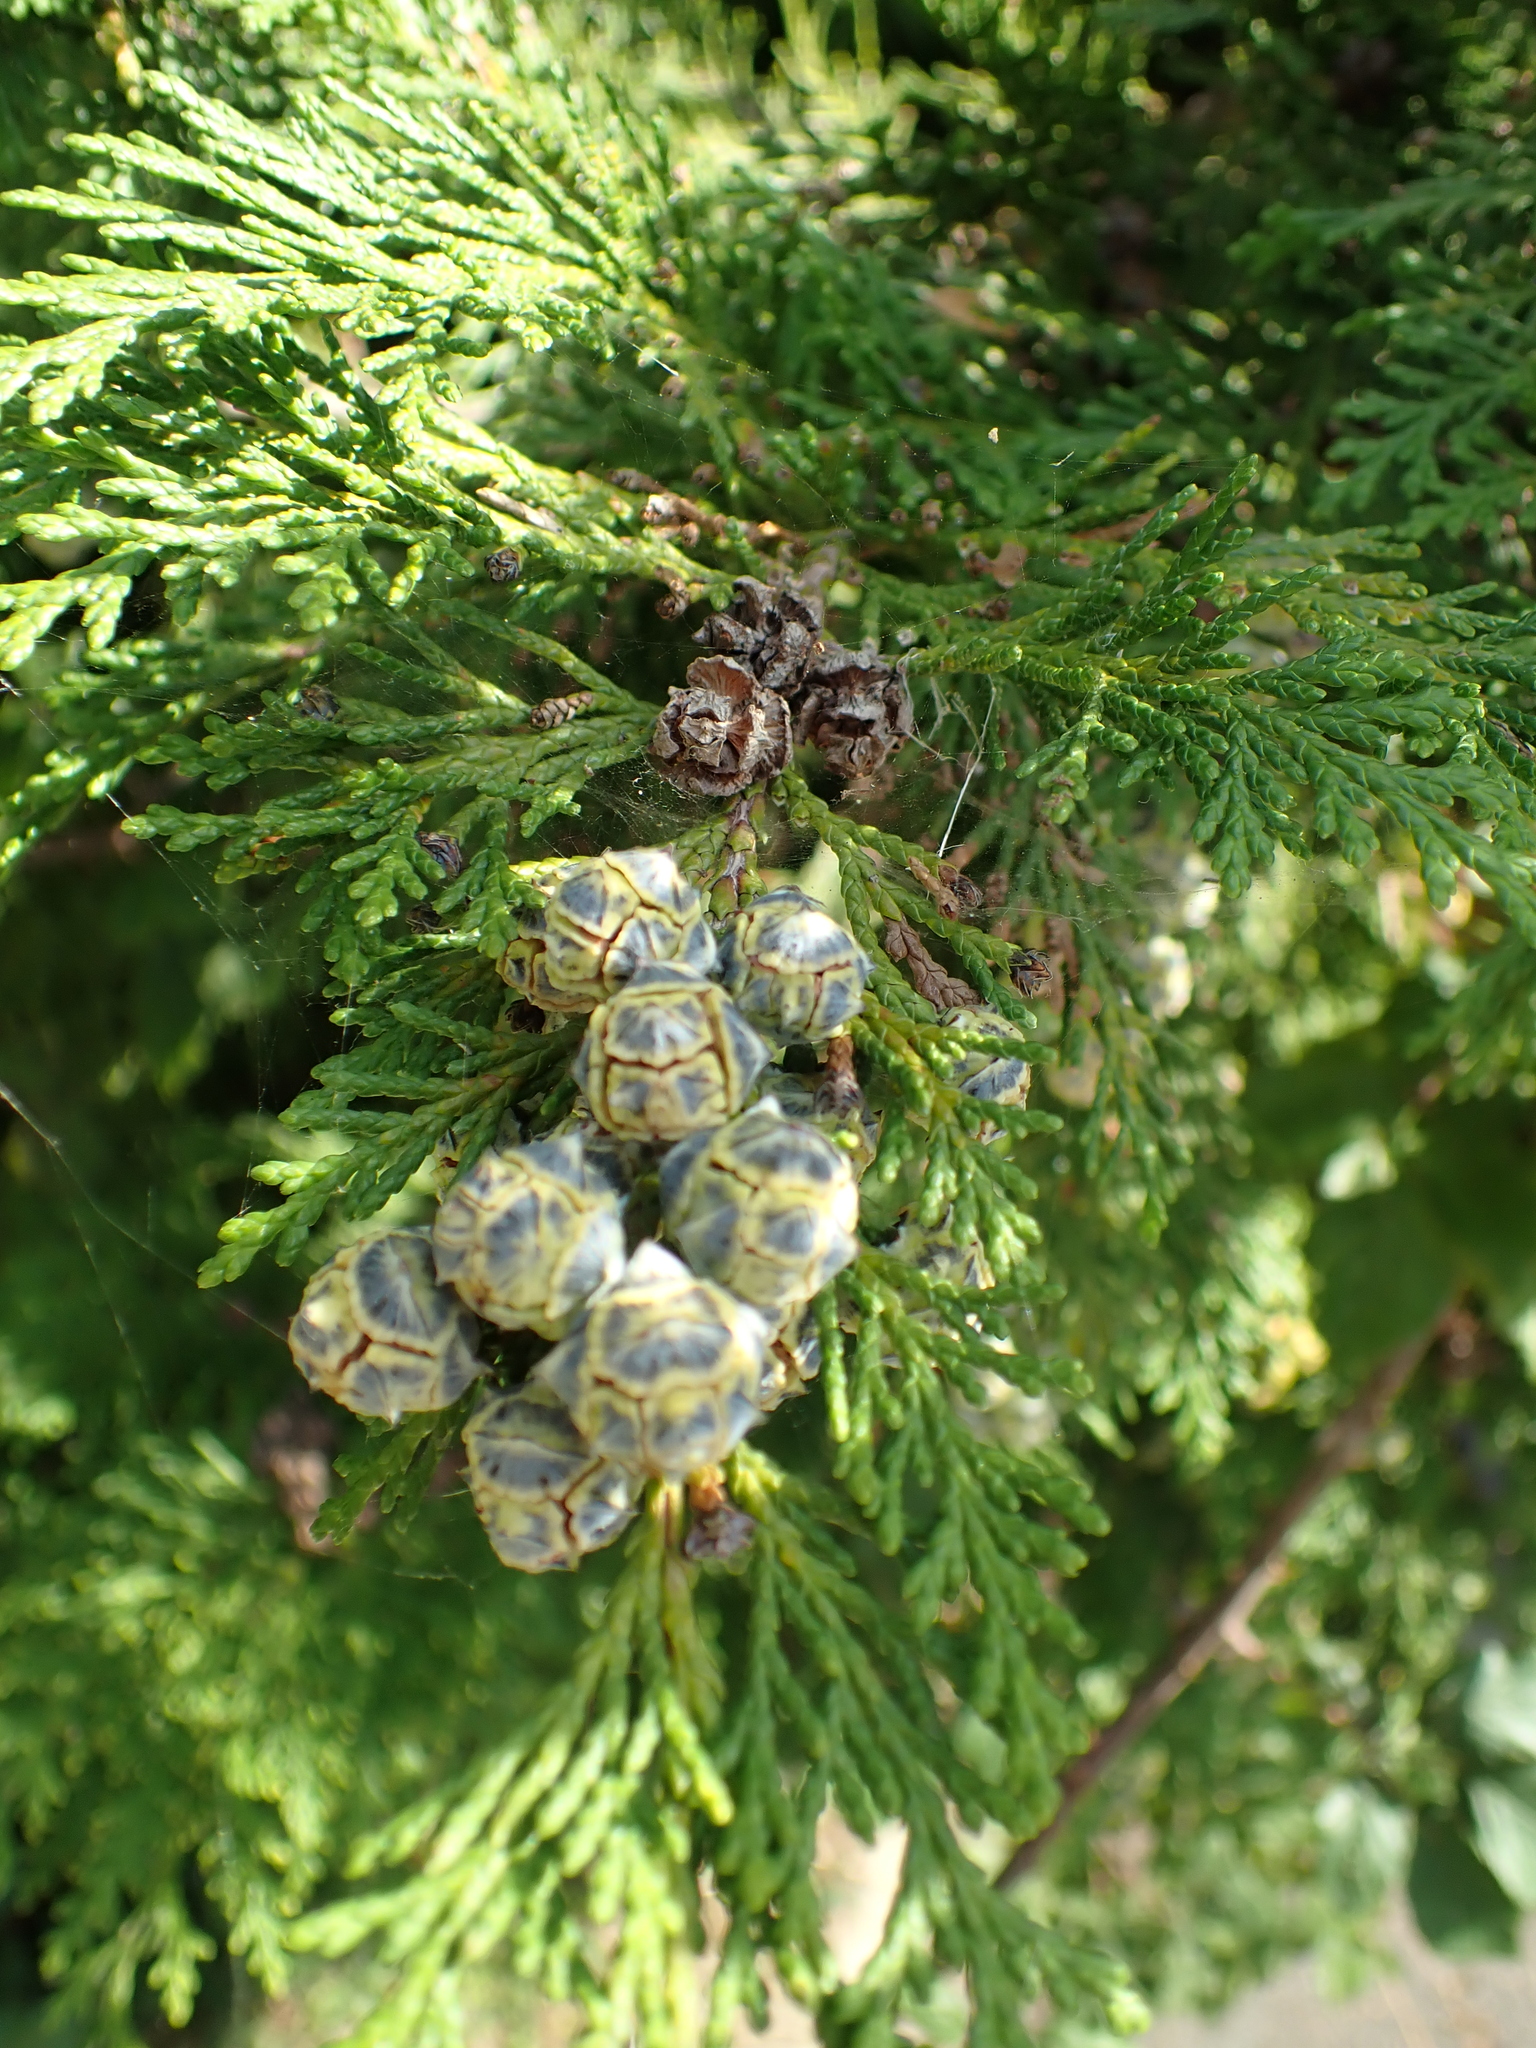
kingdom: Plantae
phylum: Tracheophyta
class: Pinopsida
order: Pinales
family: Cupressaceae
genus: Chamaecyparis
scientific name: Chamaecyparis lawsoniana
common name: Lawson's cypress
